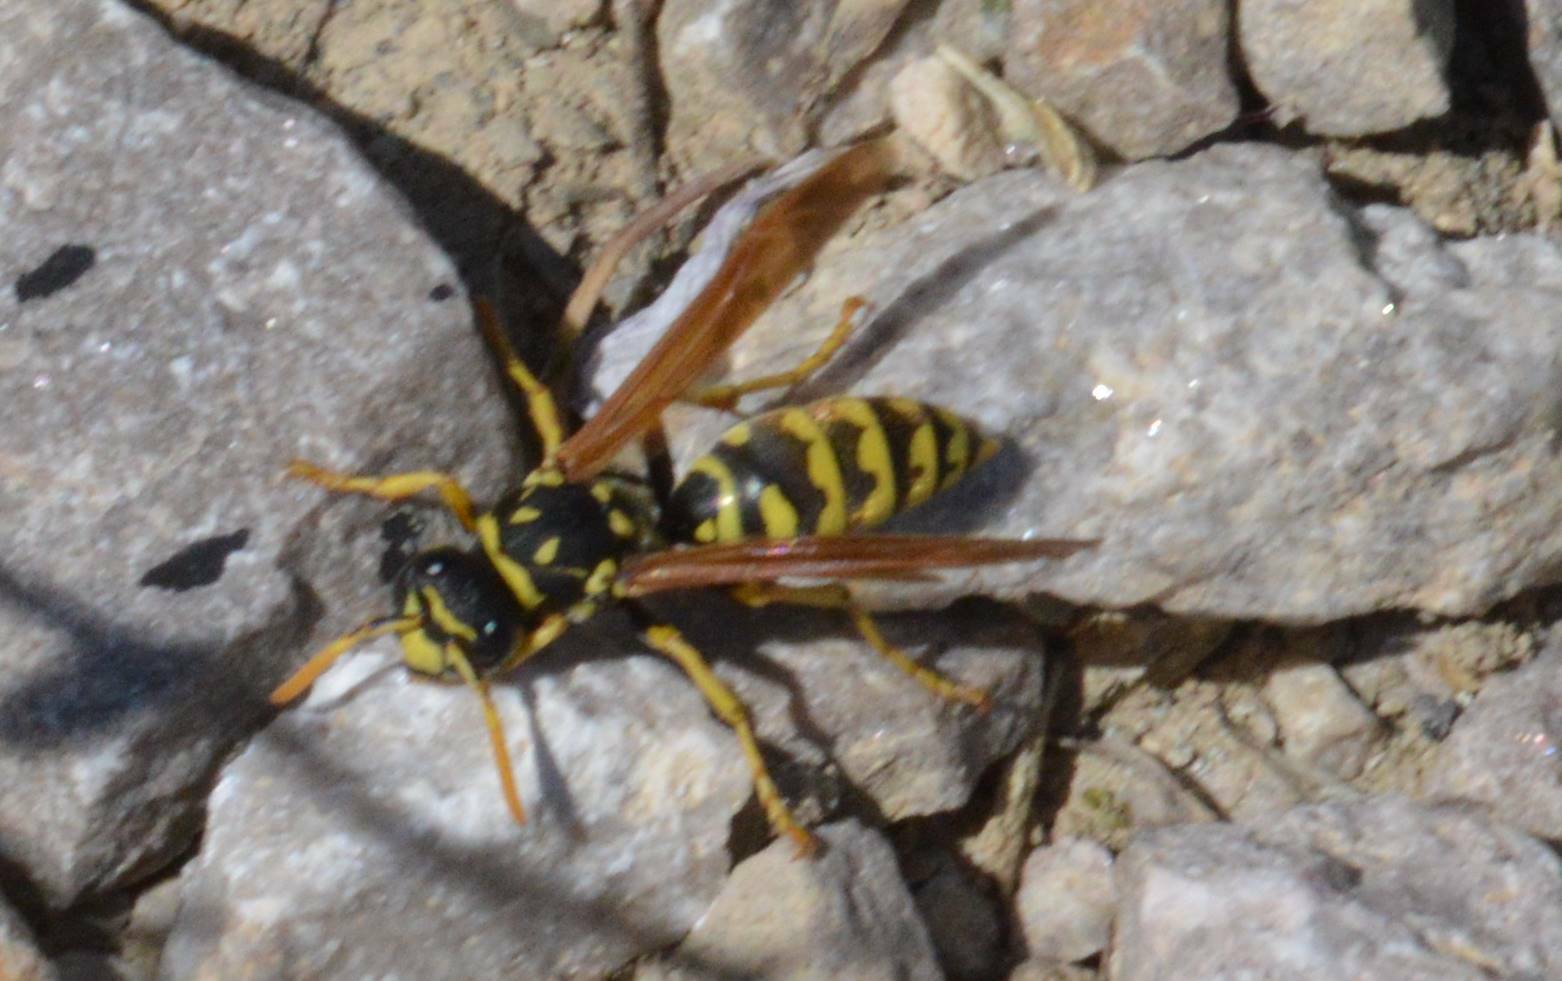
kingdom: Animalia
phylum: Arthropoda
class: Insecta
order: Hymenoptera
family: Eumenidae
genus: Polistes
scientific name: Polistes dominula
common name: Paper wasp
